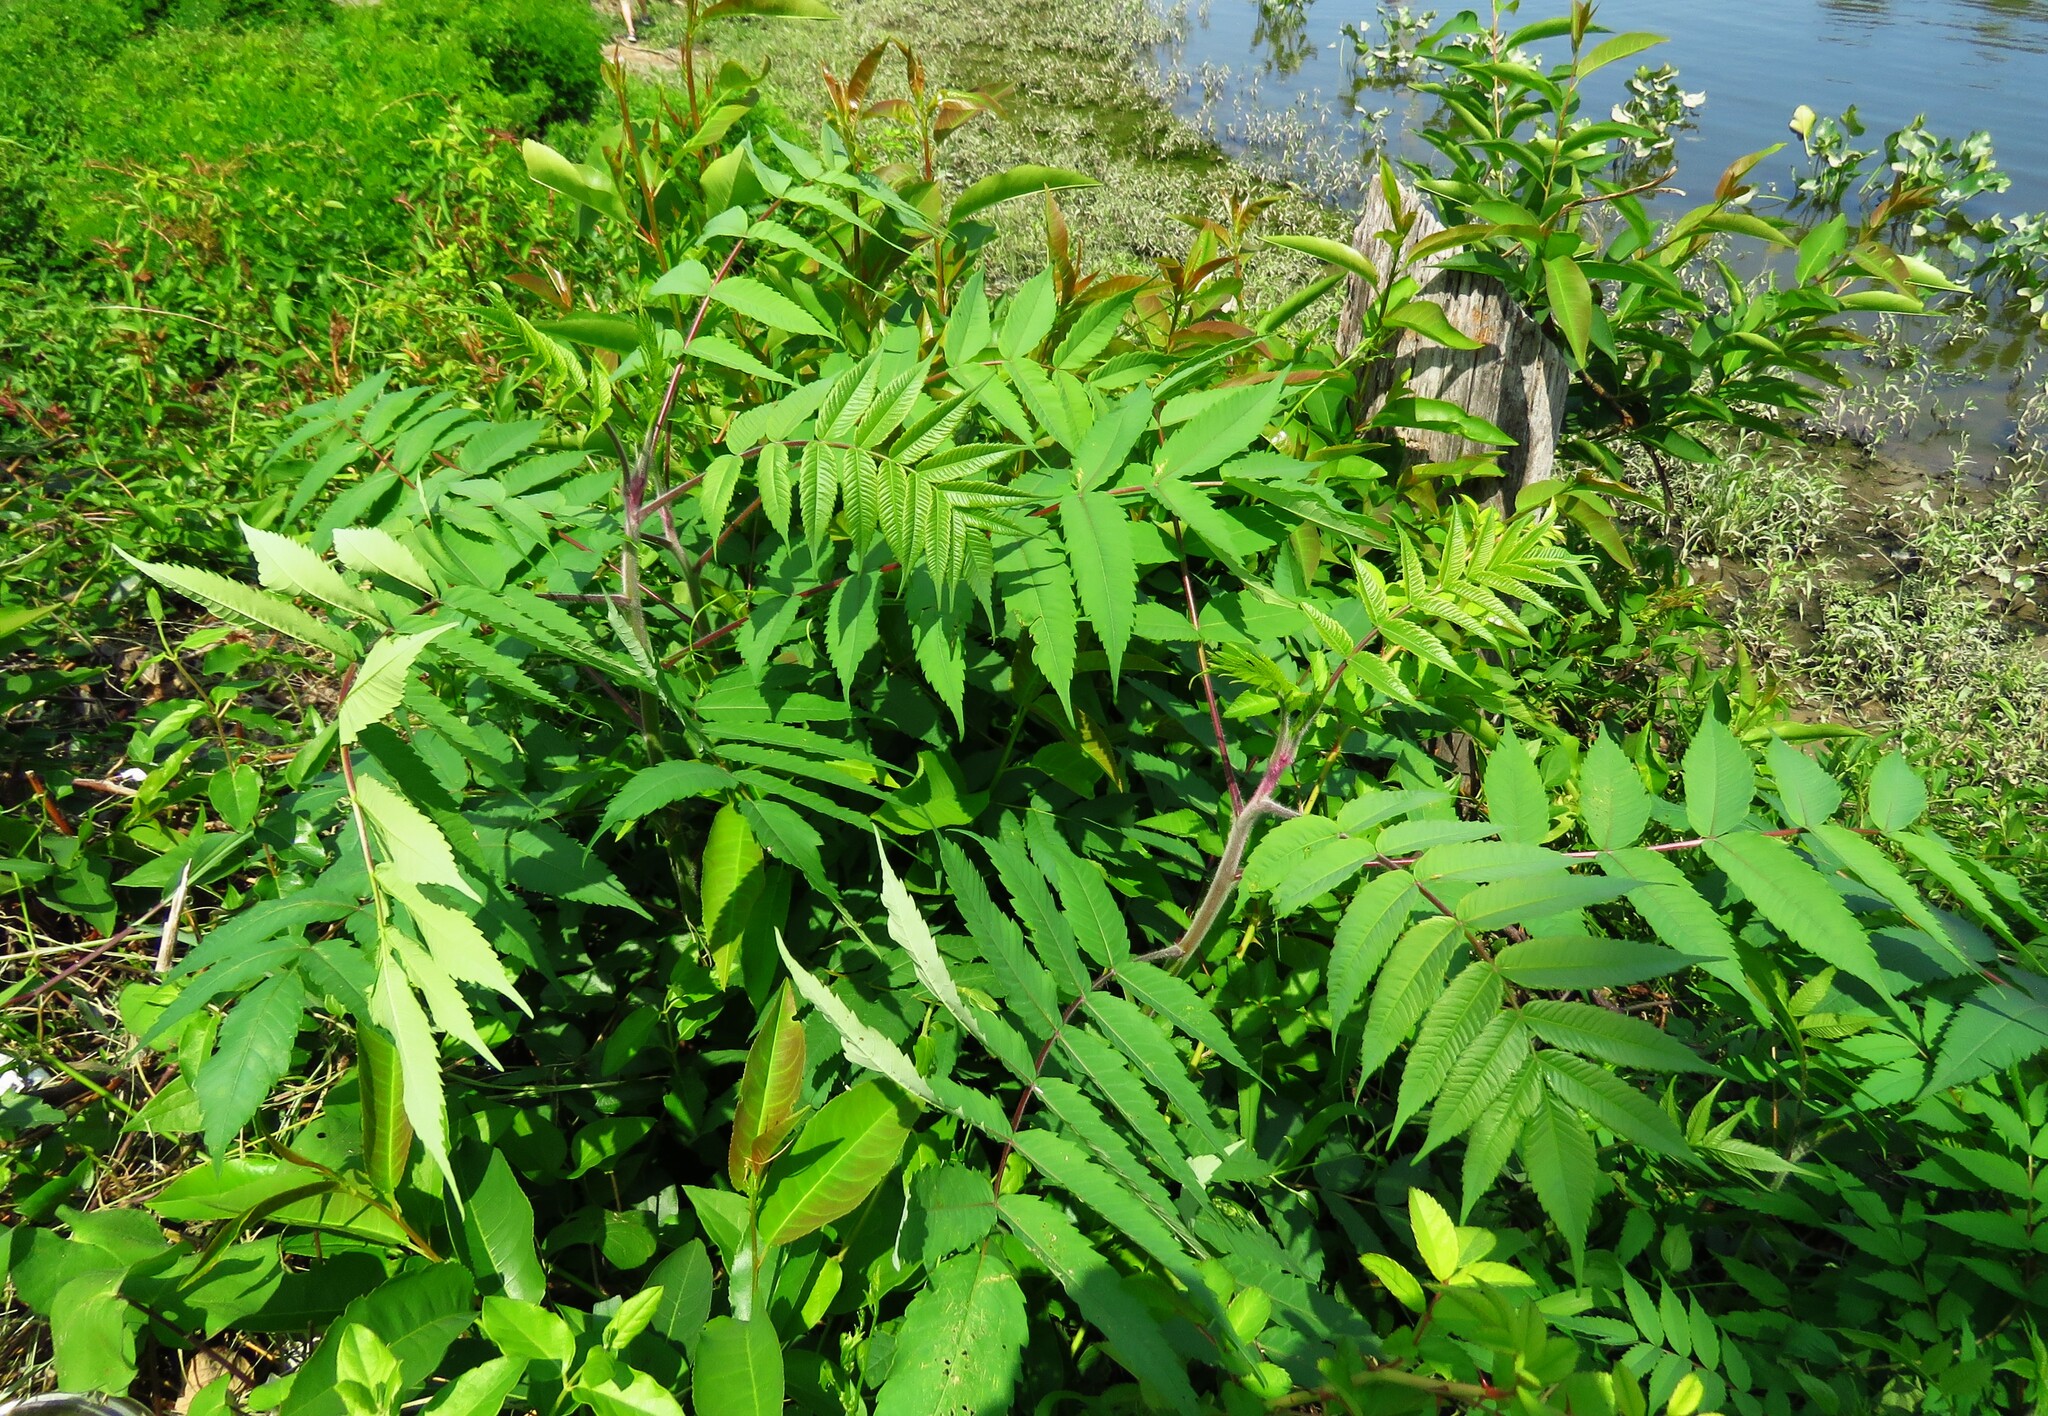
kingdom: Plantae
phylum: Tracheophyta
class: Magnoliopsida
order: Sapindales
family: Anacardiaceae
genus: Rhus
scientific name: Rhus typhina
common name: Staghorn sumac
